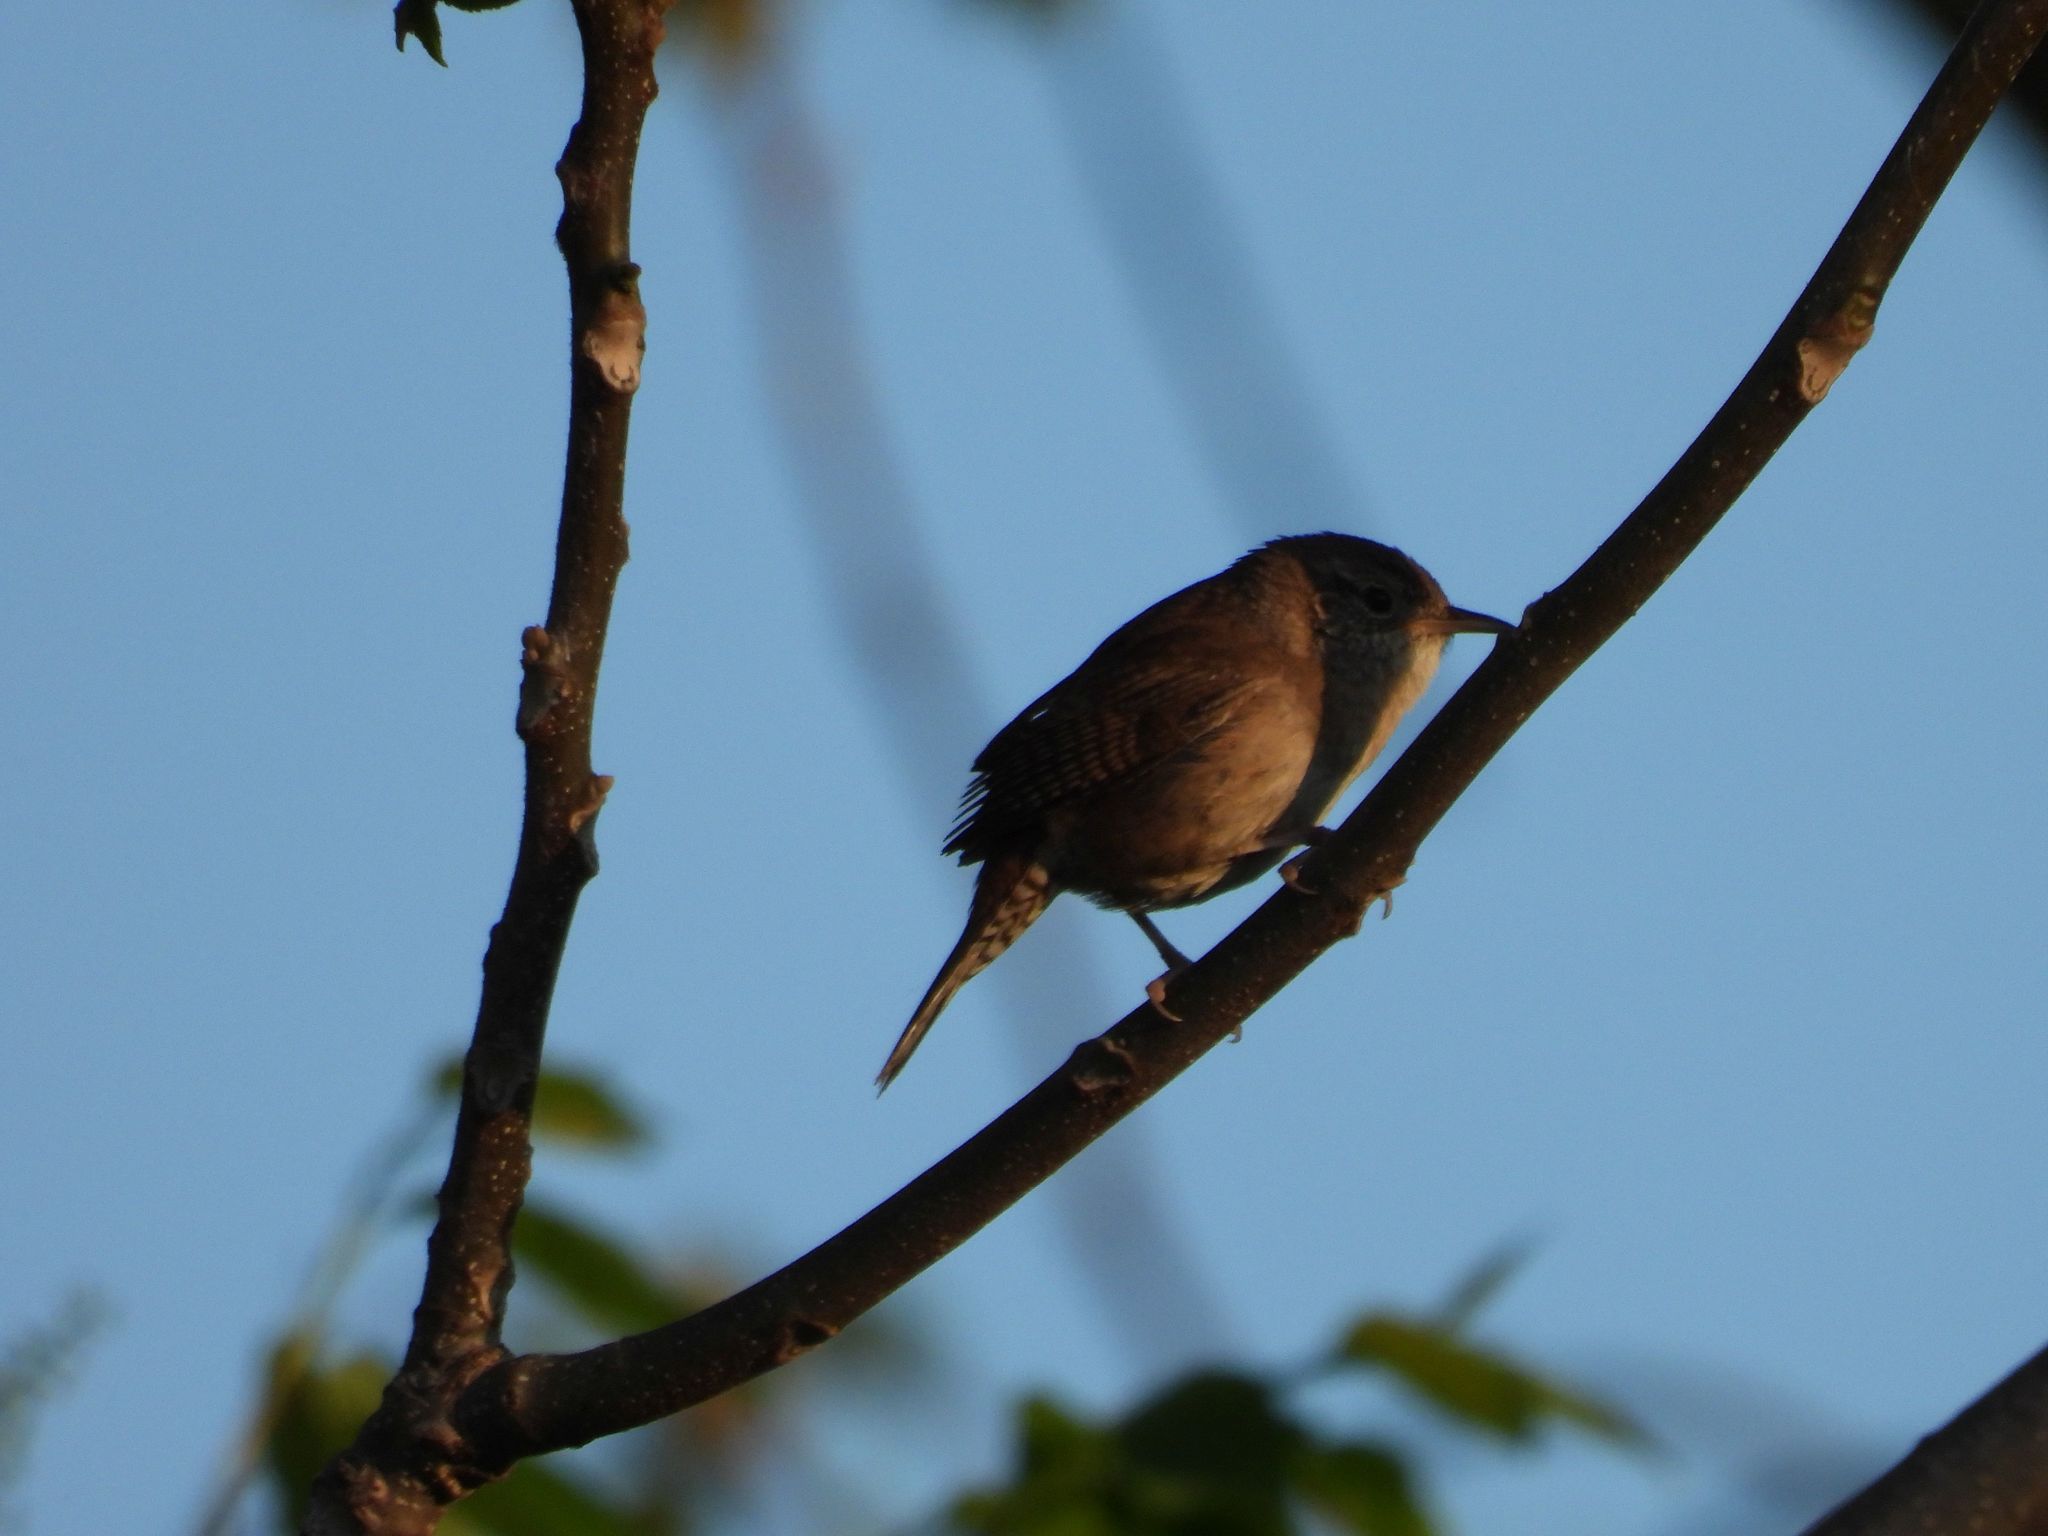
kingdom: Animalia
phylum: Chordata
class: Aves
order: Passeriformes
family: Troglodytidae
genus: Troglodytes
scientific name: Troglodytes aedon
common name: House wren
